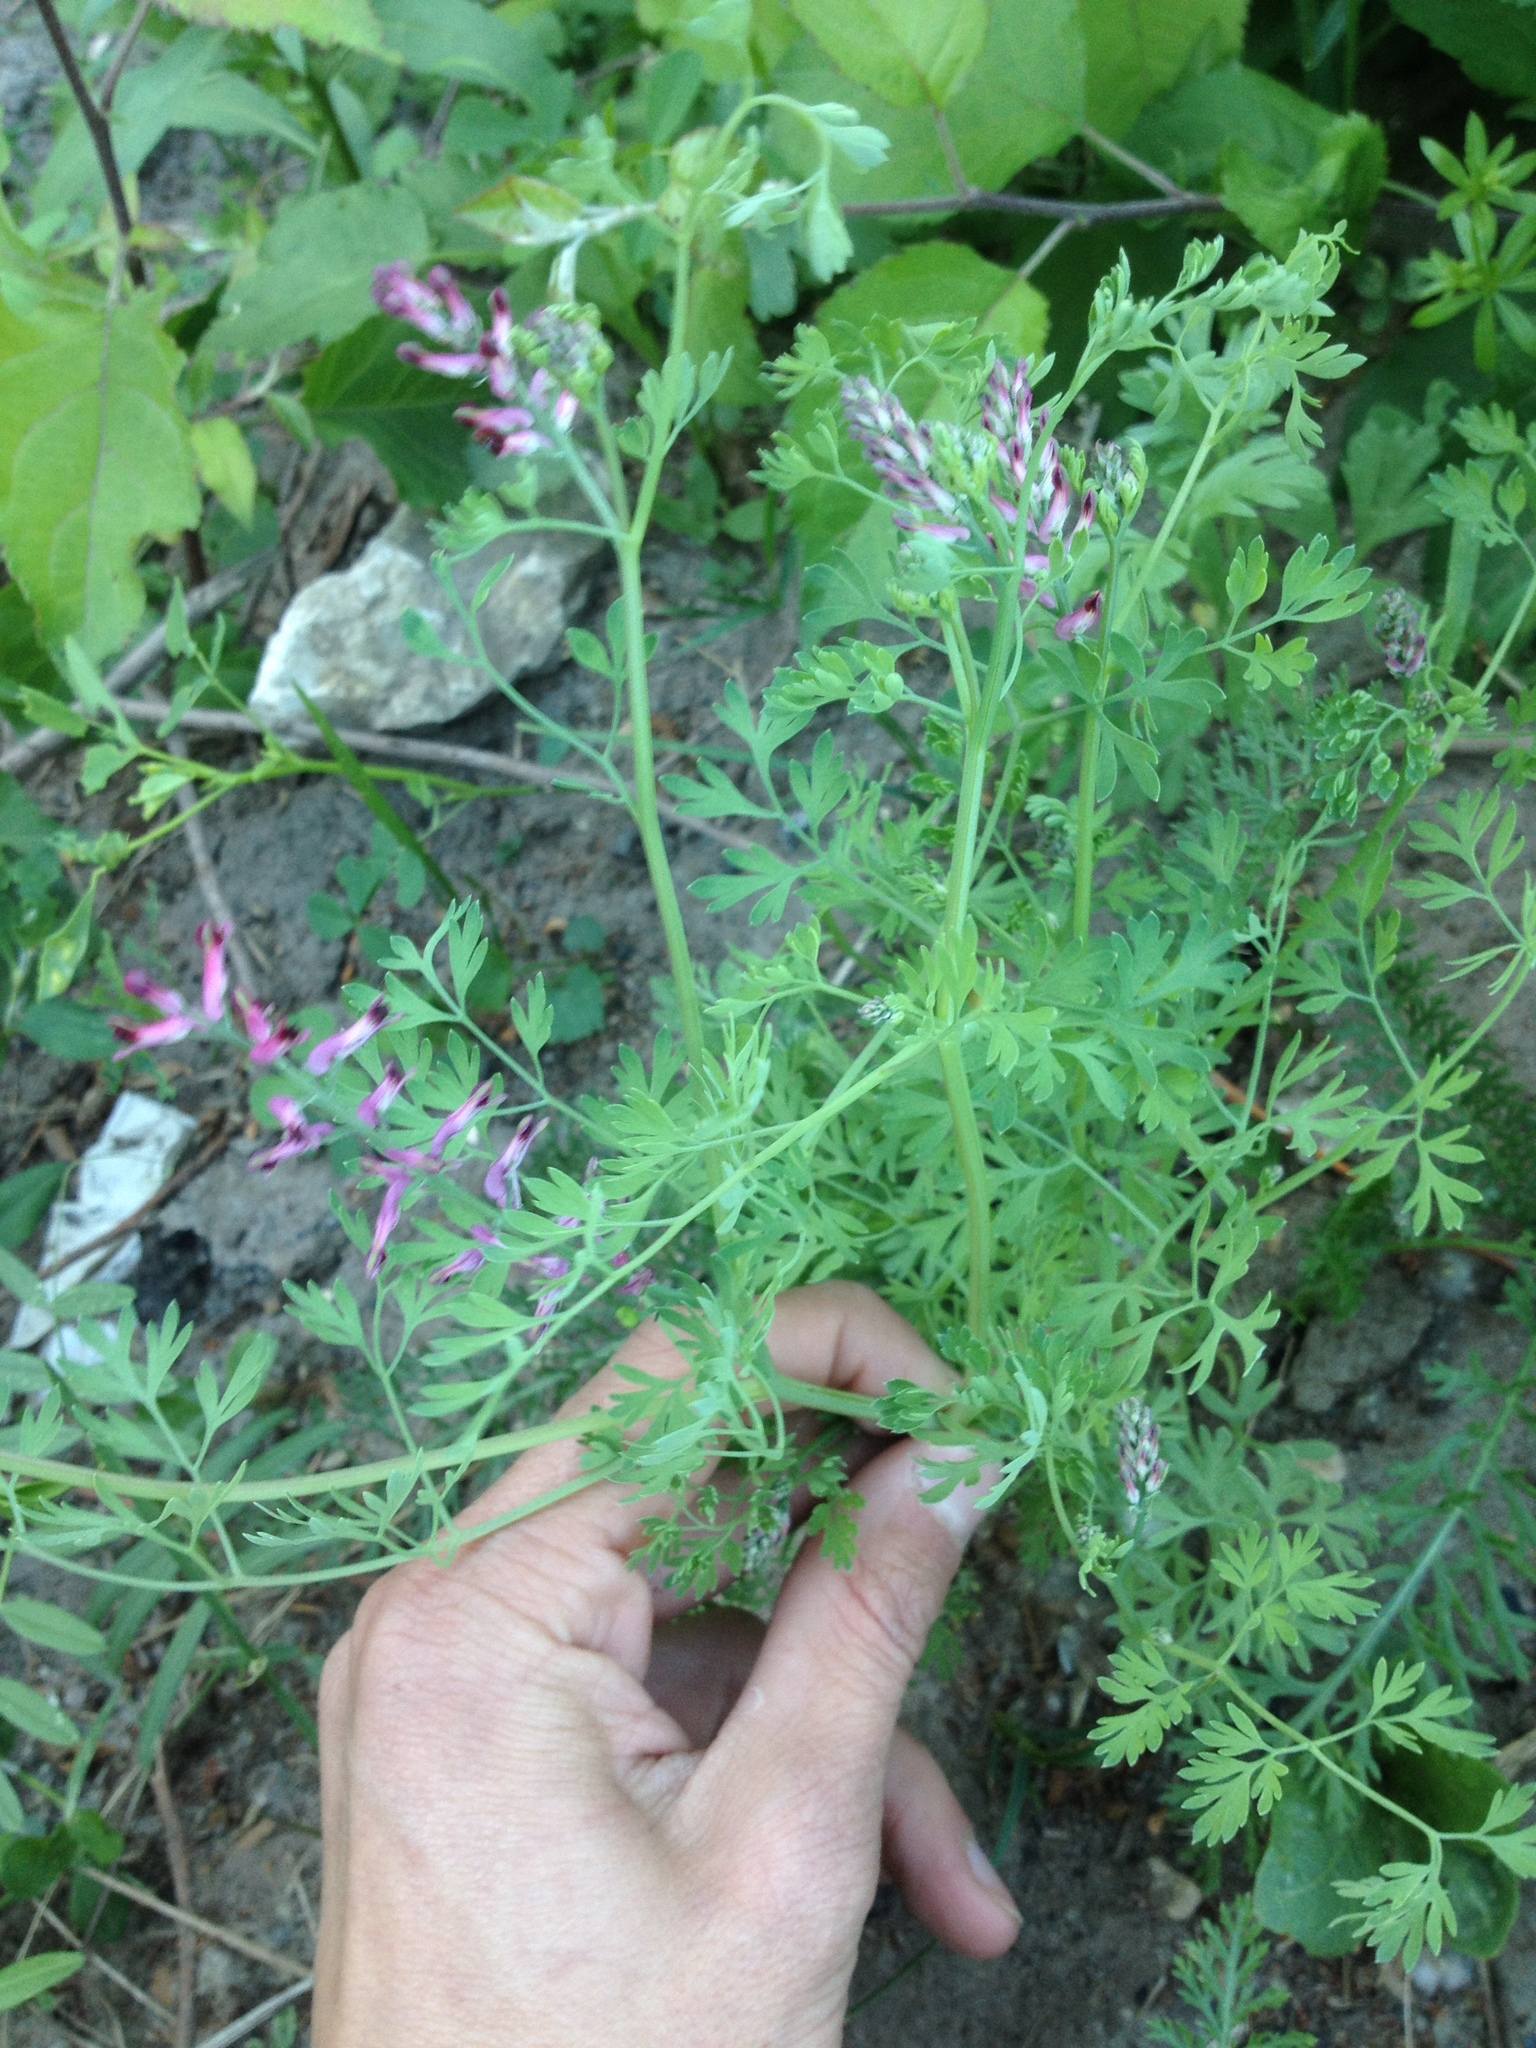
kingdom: Plantae
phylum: Tracheophyta
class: Magnoliopsida
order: Ranunculales
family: Papaveraceae
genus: Fumaria
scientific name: Fumaria officinalis
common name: Common fumitory
